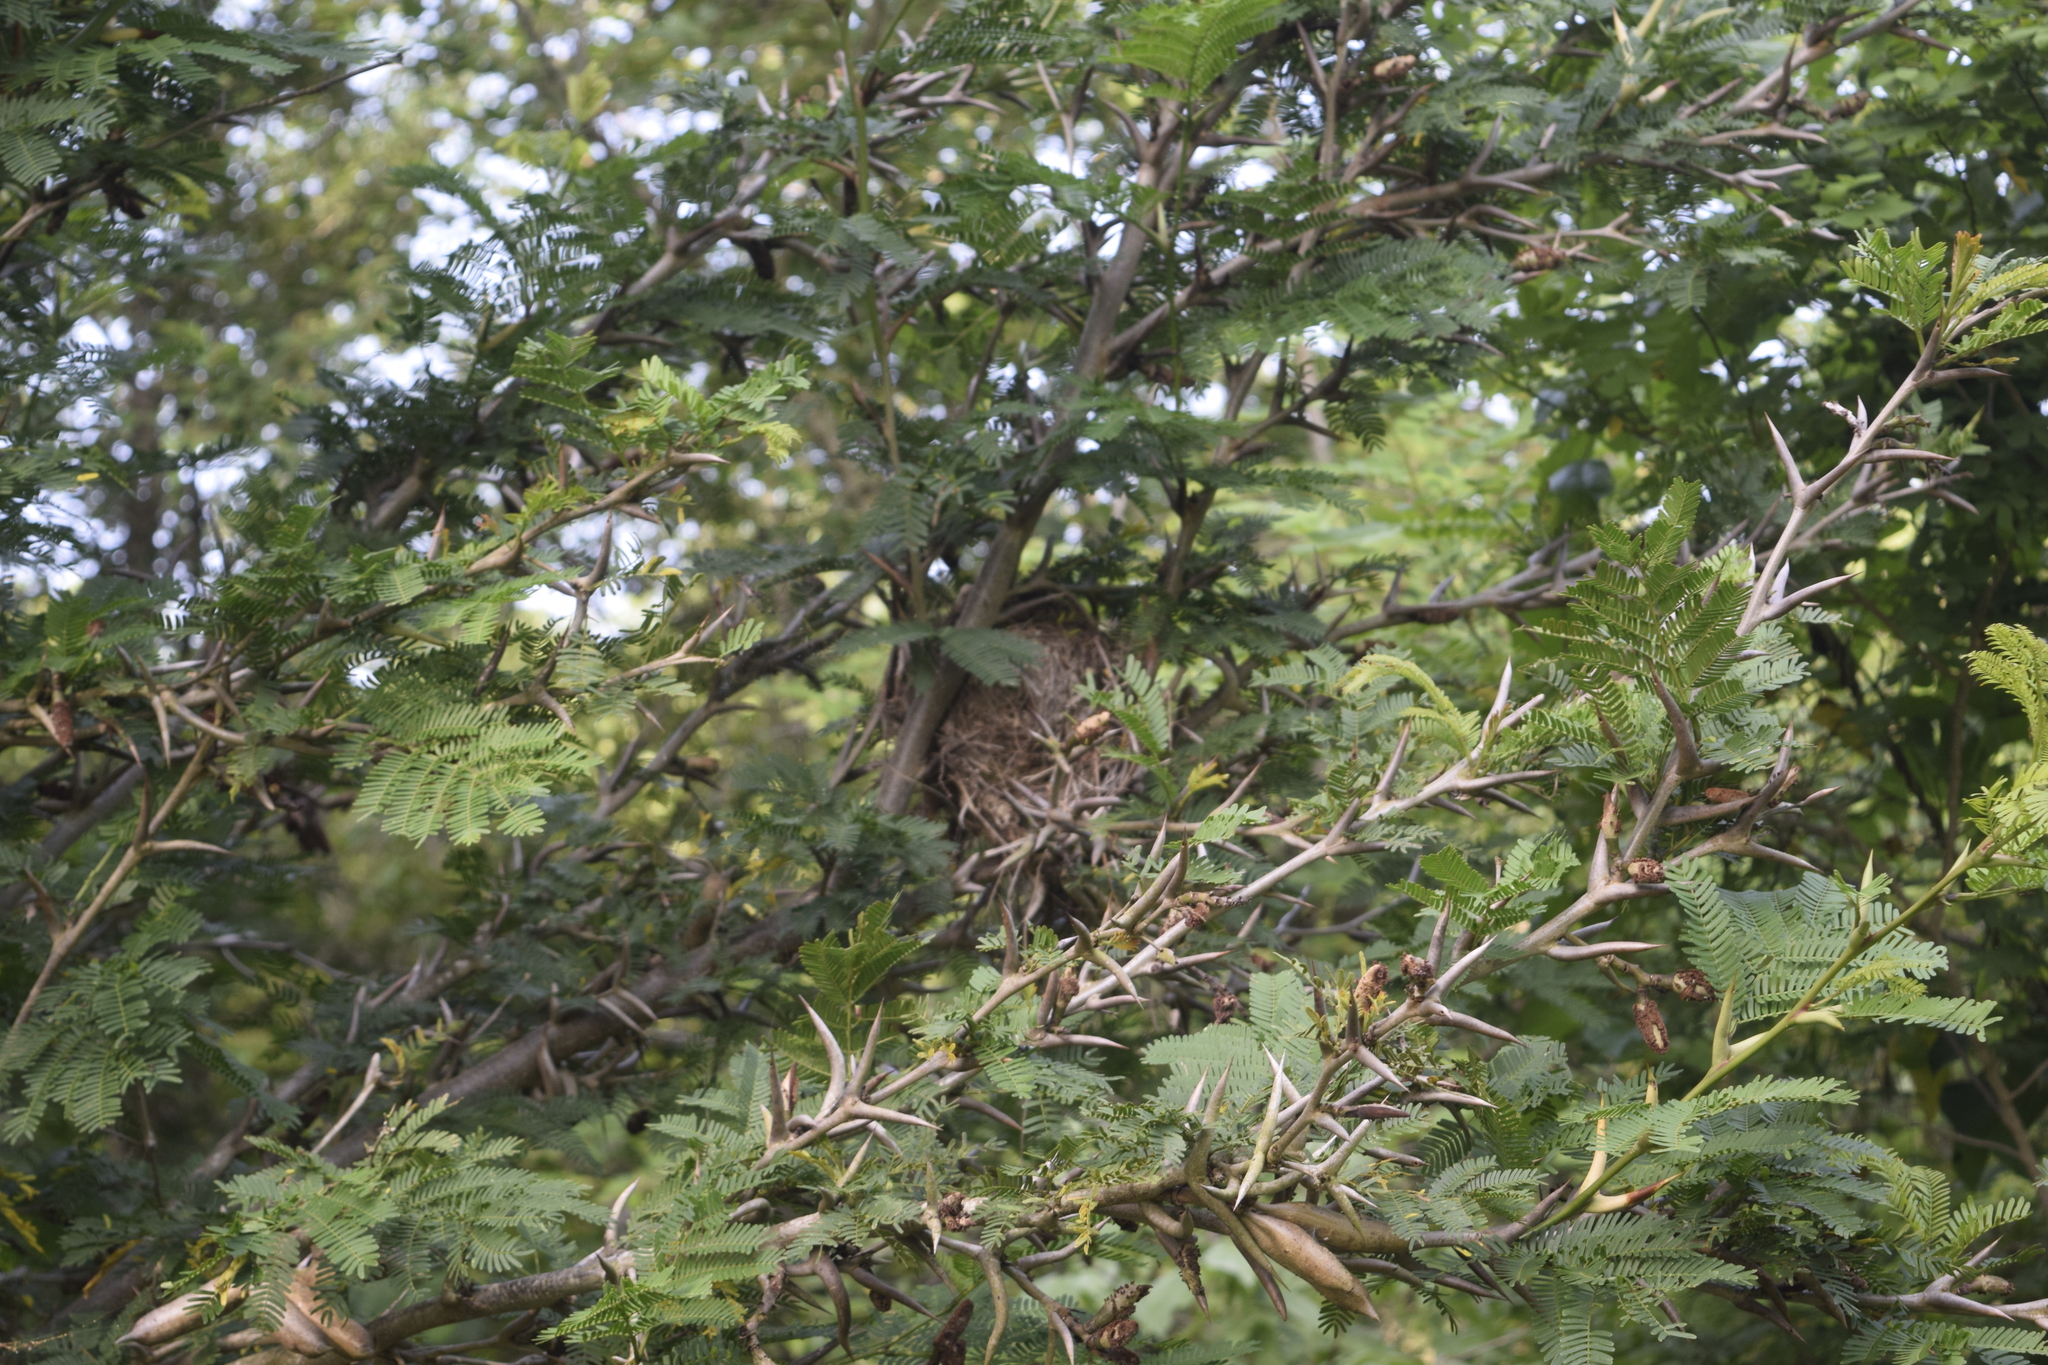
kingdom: Plantae
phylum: Tracheophyta
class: Magnoliopsida
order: Fabales
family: Fabaceae
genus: Vachellia
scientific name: Vachellia cornigera
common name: Bullhorn wattle
